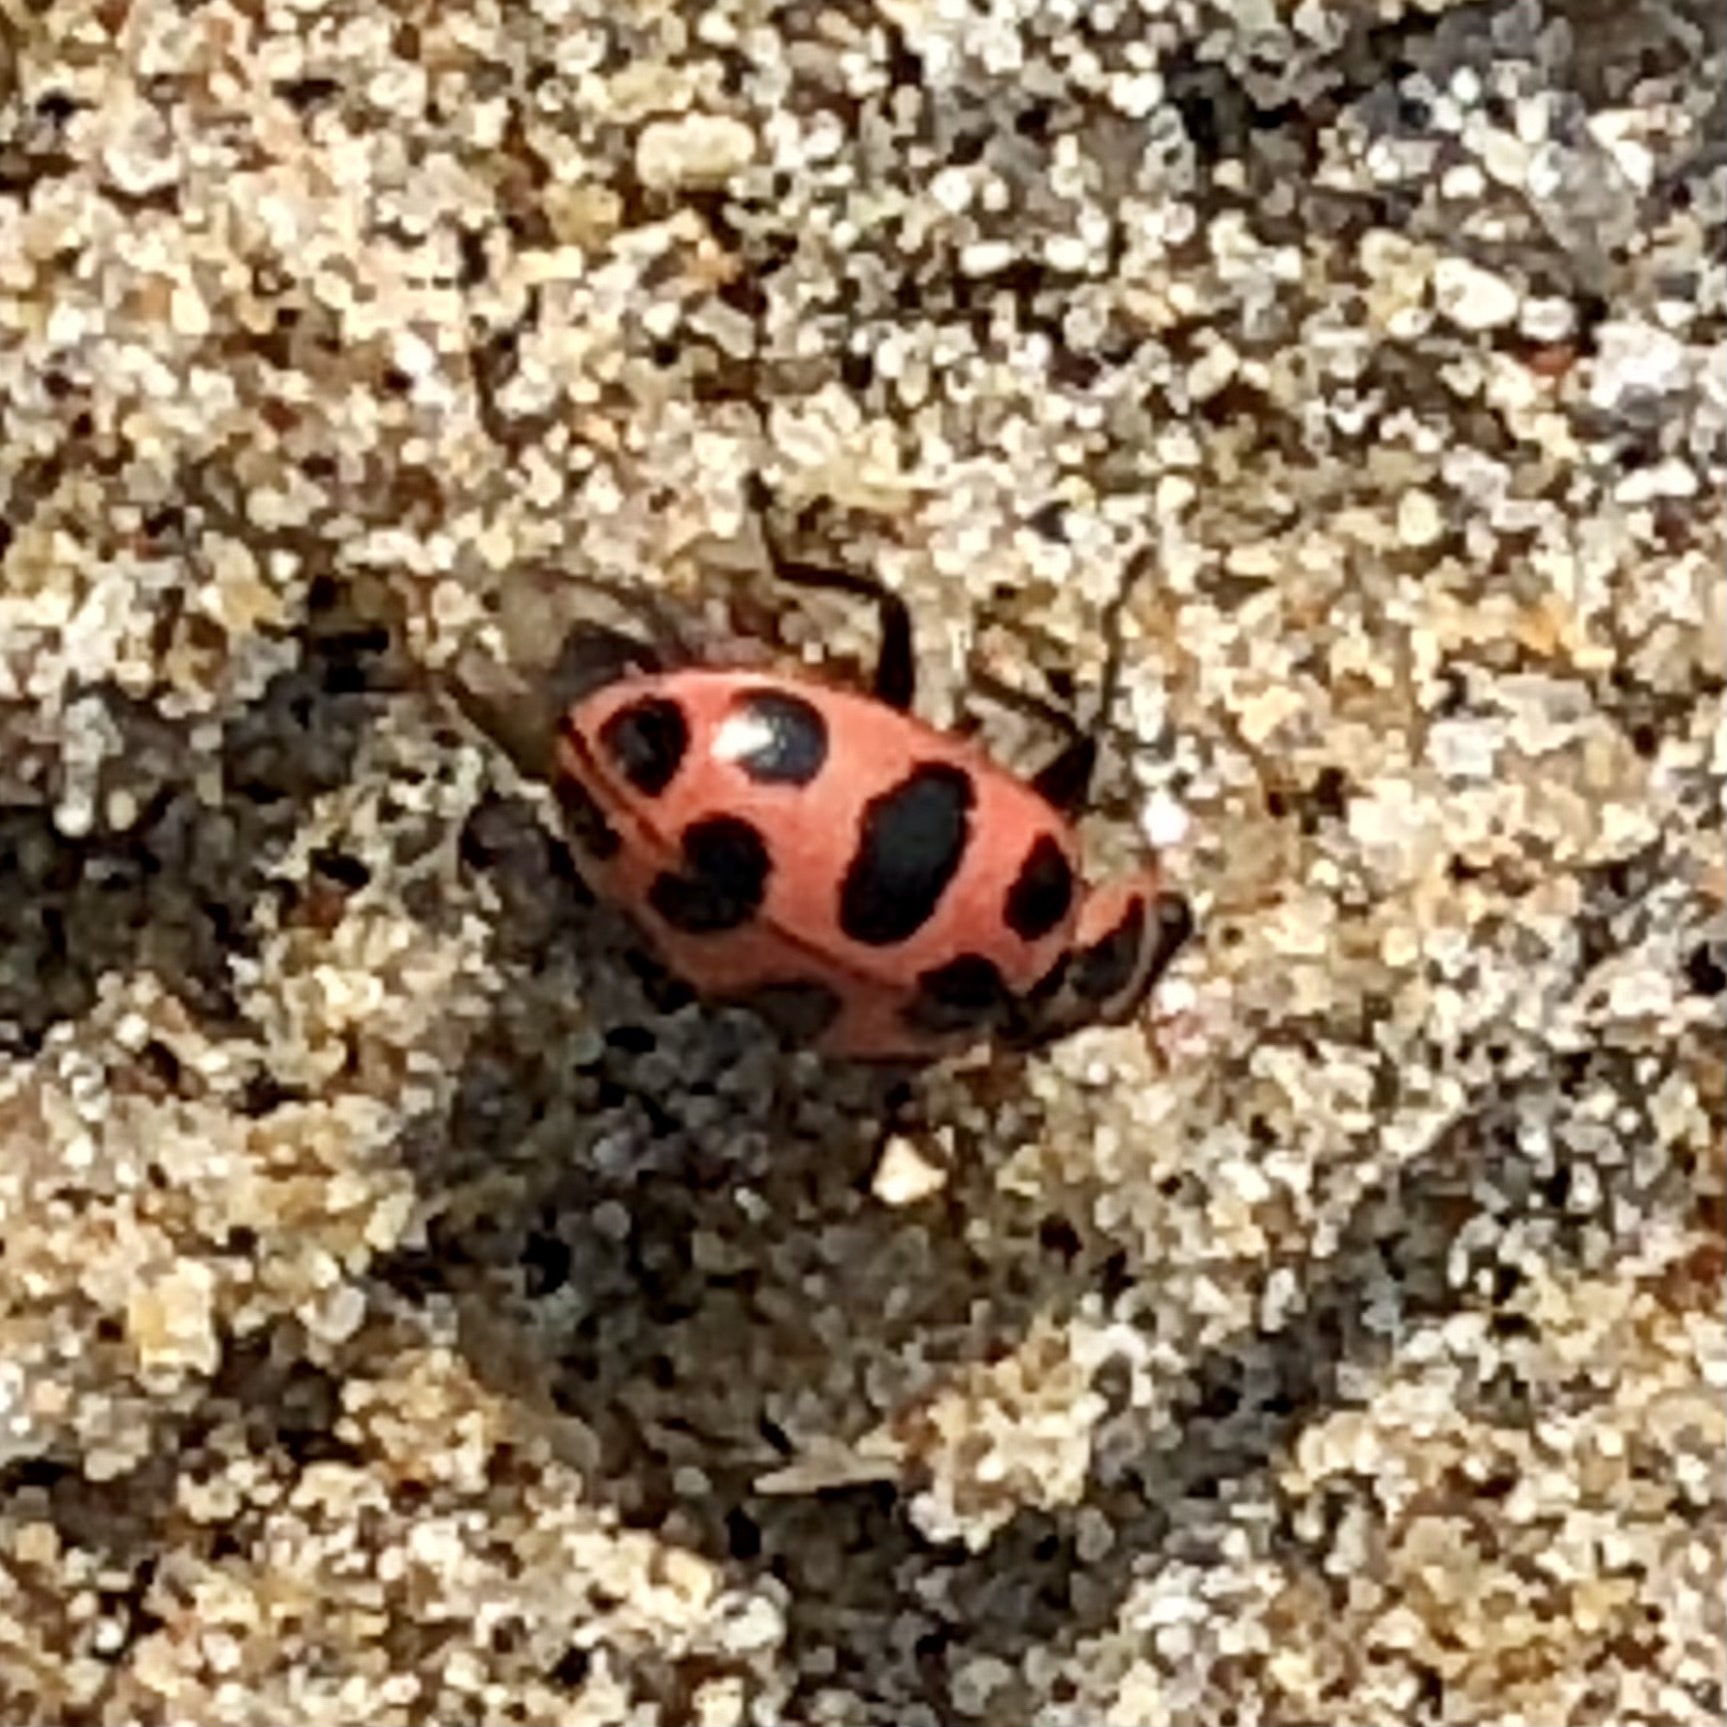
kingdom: Animalia
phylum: Arthropoda
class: Insecta
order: Coleoptera
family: Coccinellidae
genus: Coleomegilla
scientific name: Coleomegilla maculata
